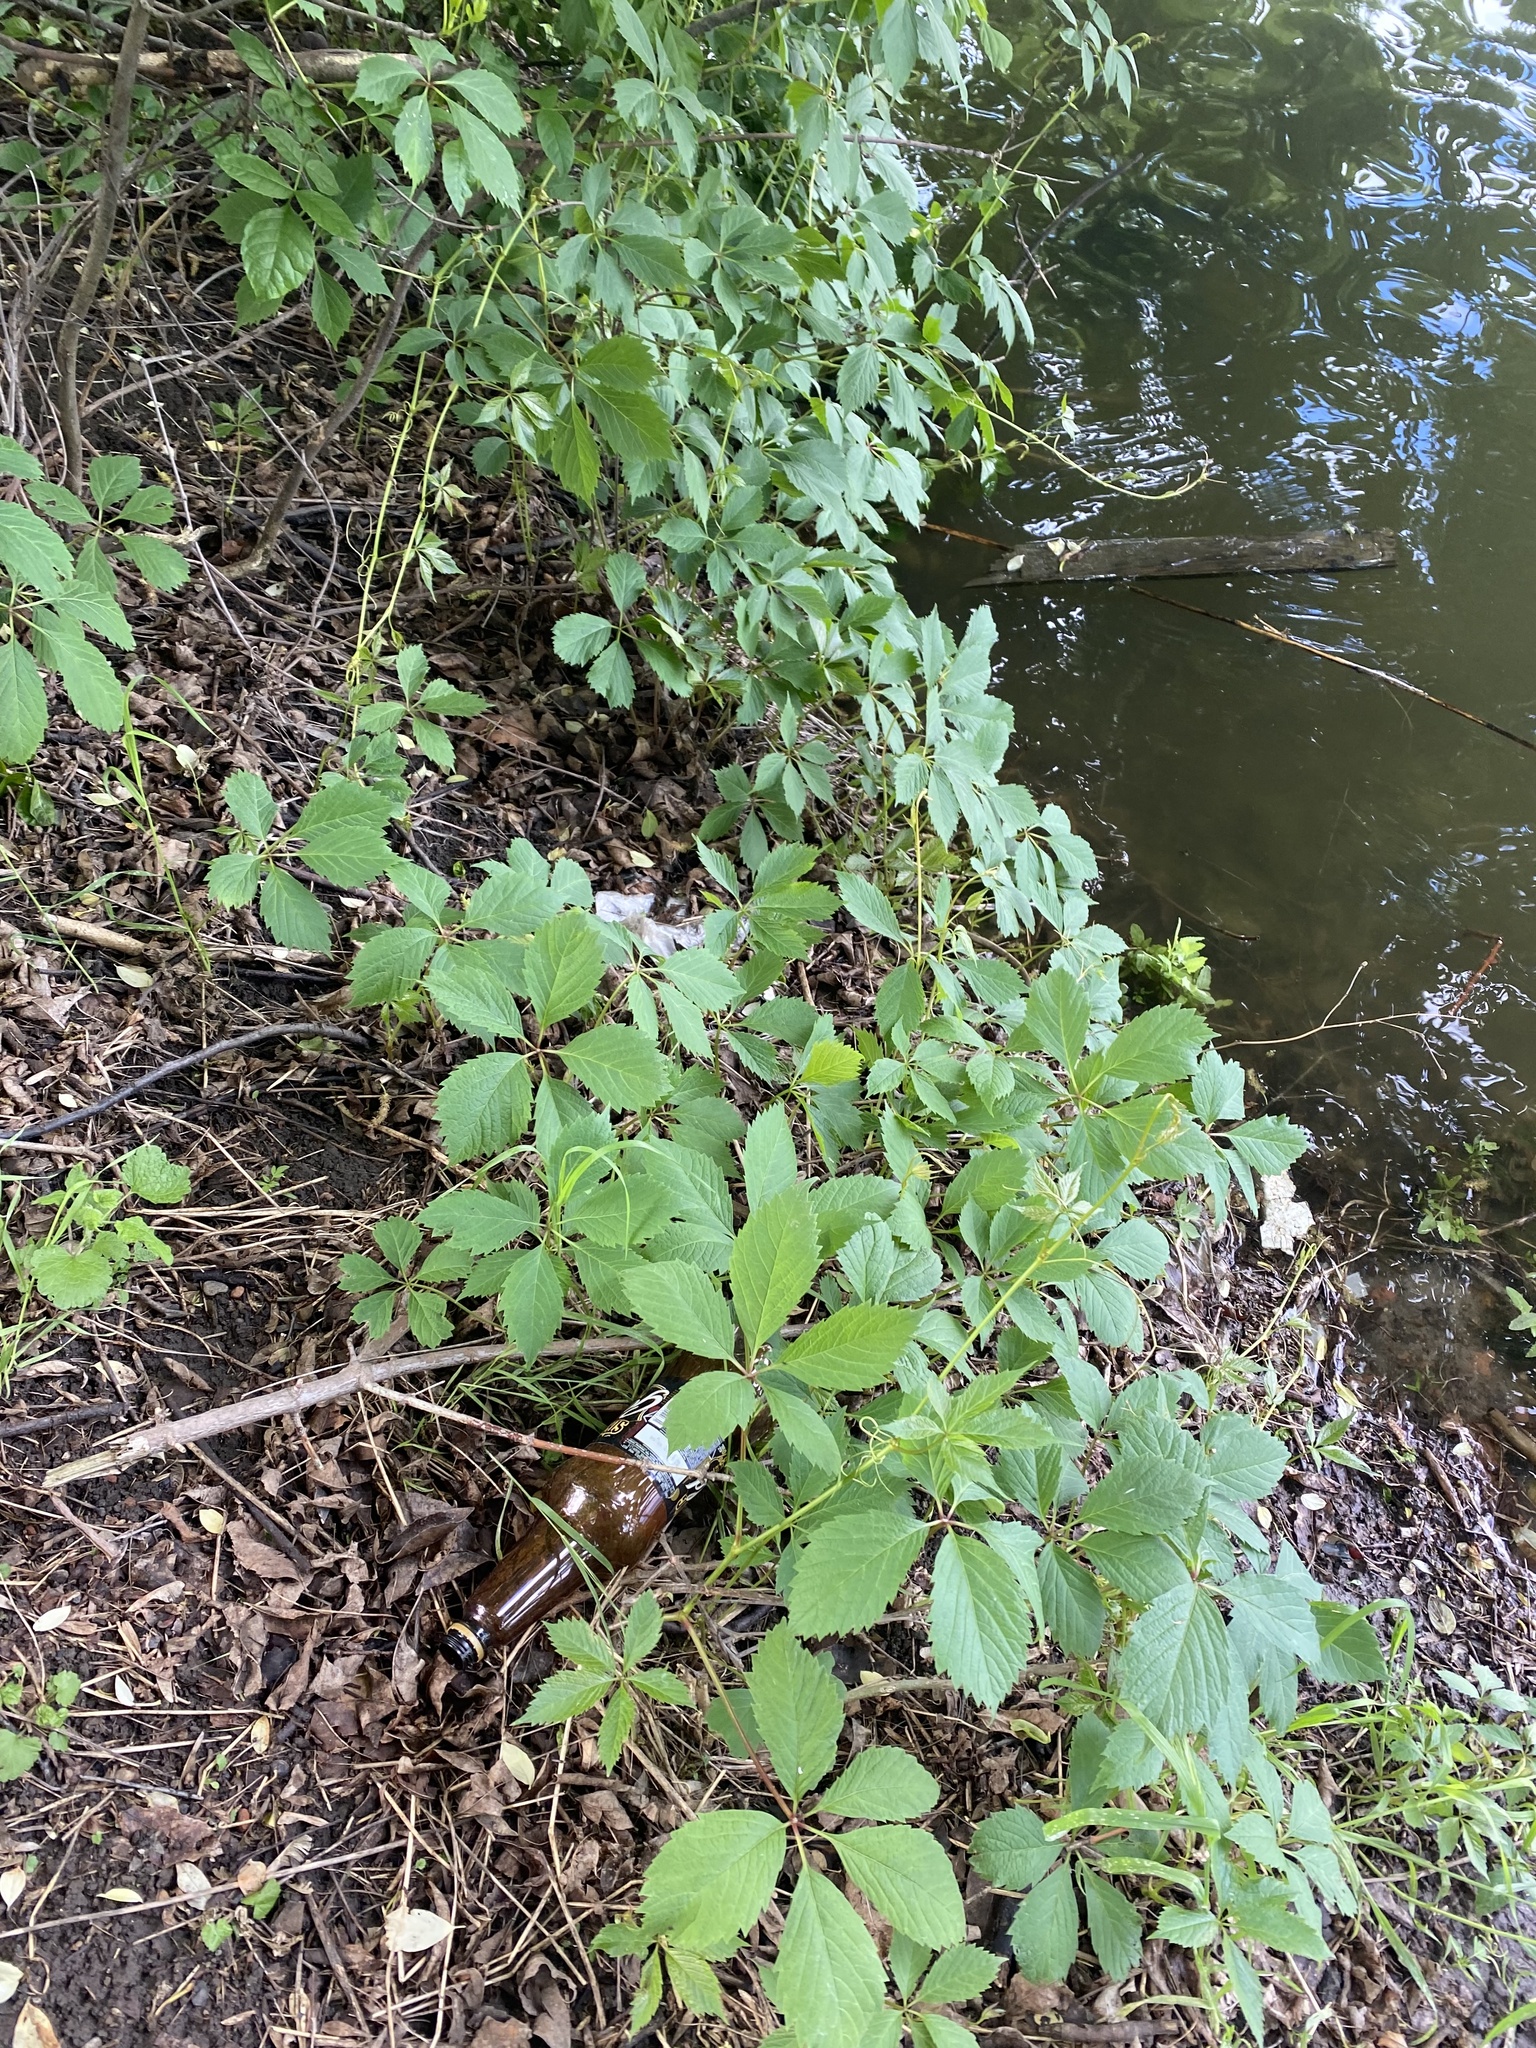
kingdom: Plantae
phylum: Tracheophyta
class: Magnoliopsida
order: Vitales
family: Vitaceae
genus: Parthenocissus
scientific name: Parthenocissus inserta
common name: False virginia-creeper
